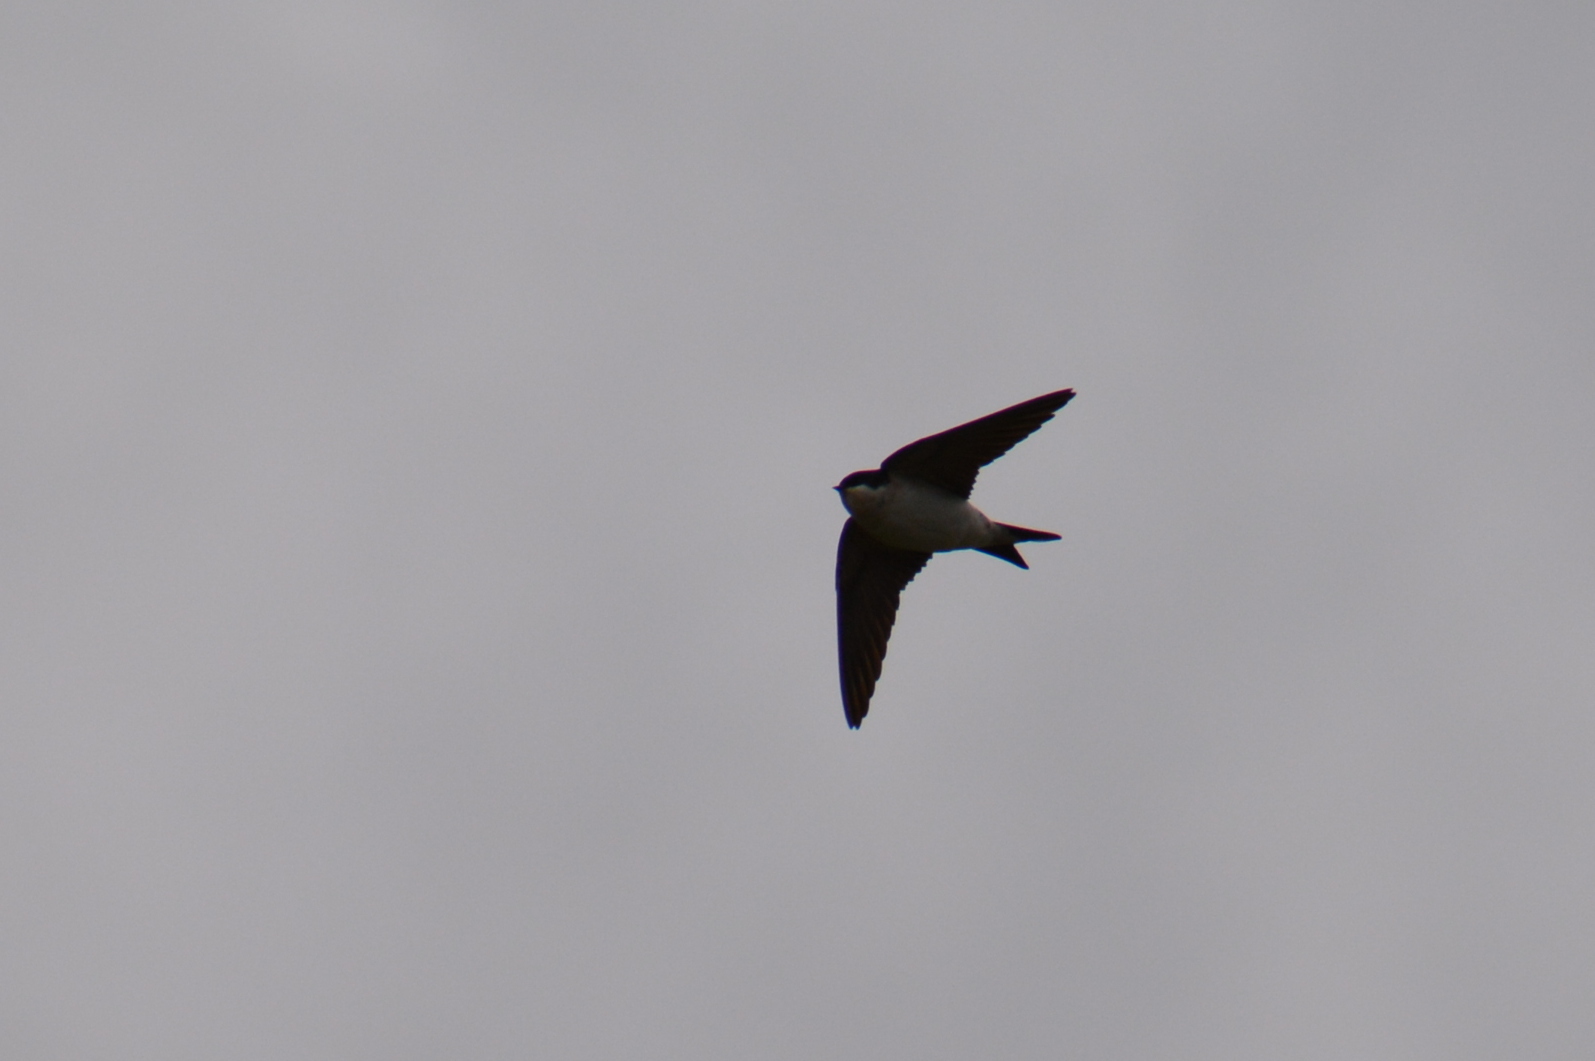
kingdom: Animalia
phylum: Chordata
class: Aves
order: Passeriformes
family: Hirundinidae
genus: Delichon
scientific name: Delichon urbicum
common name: Common house martin
